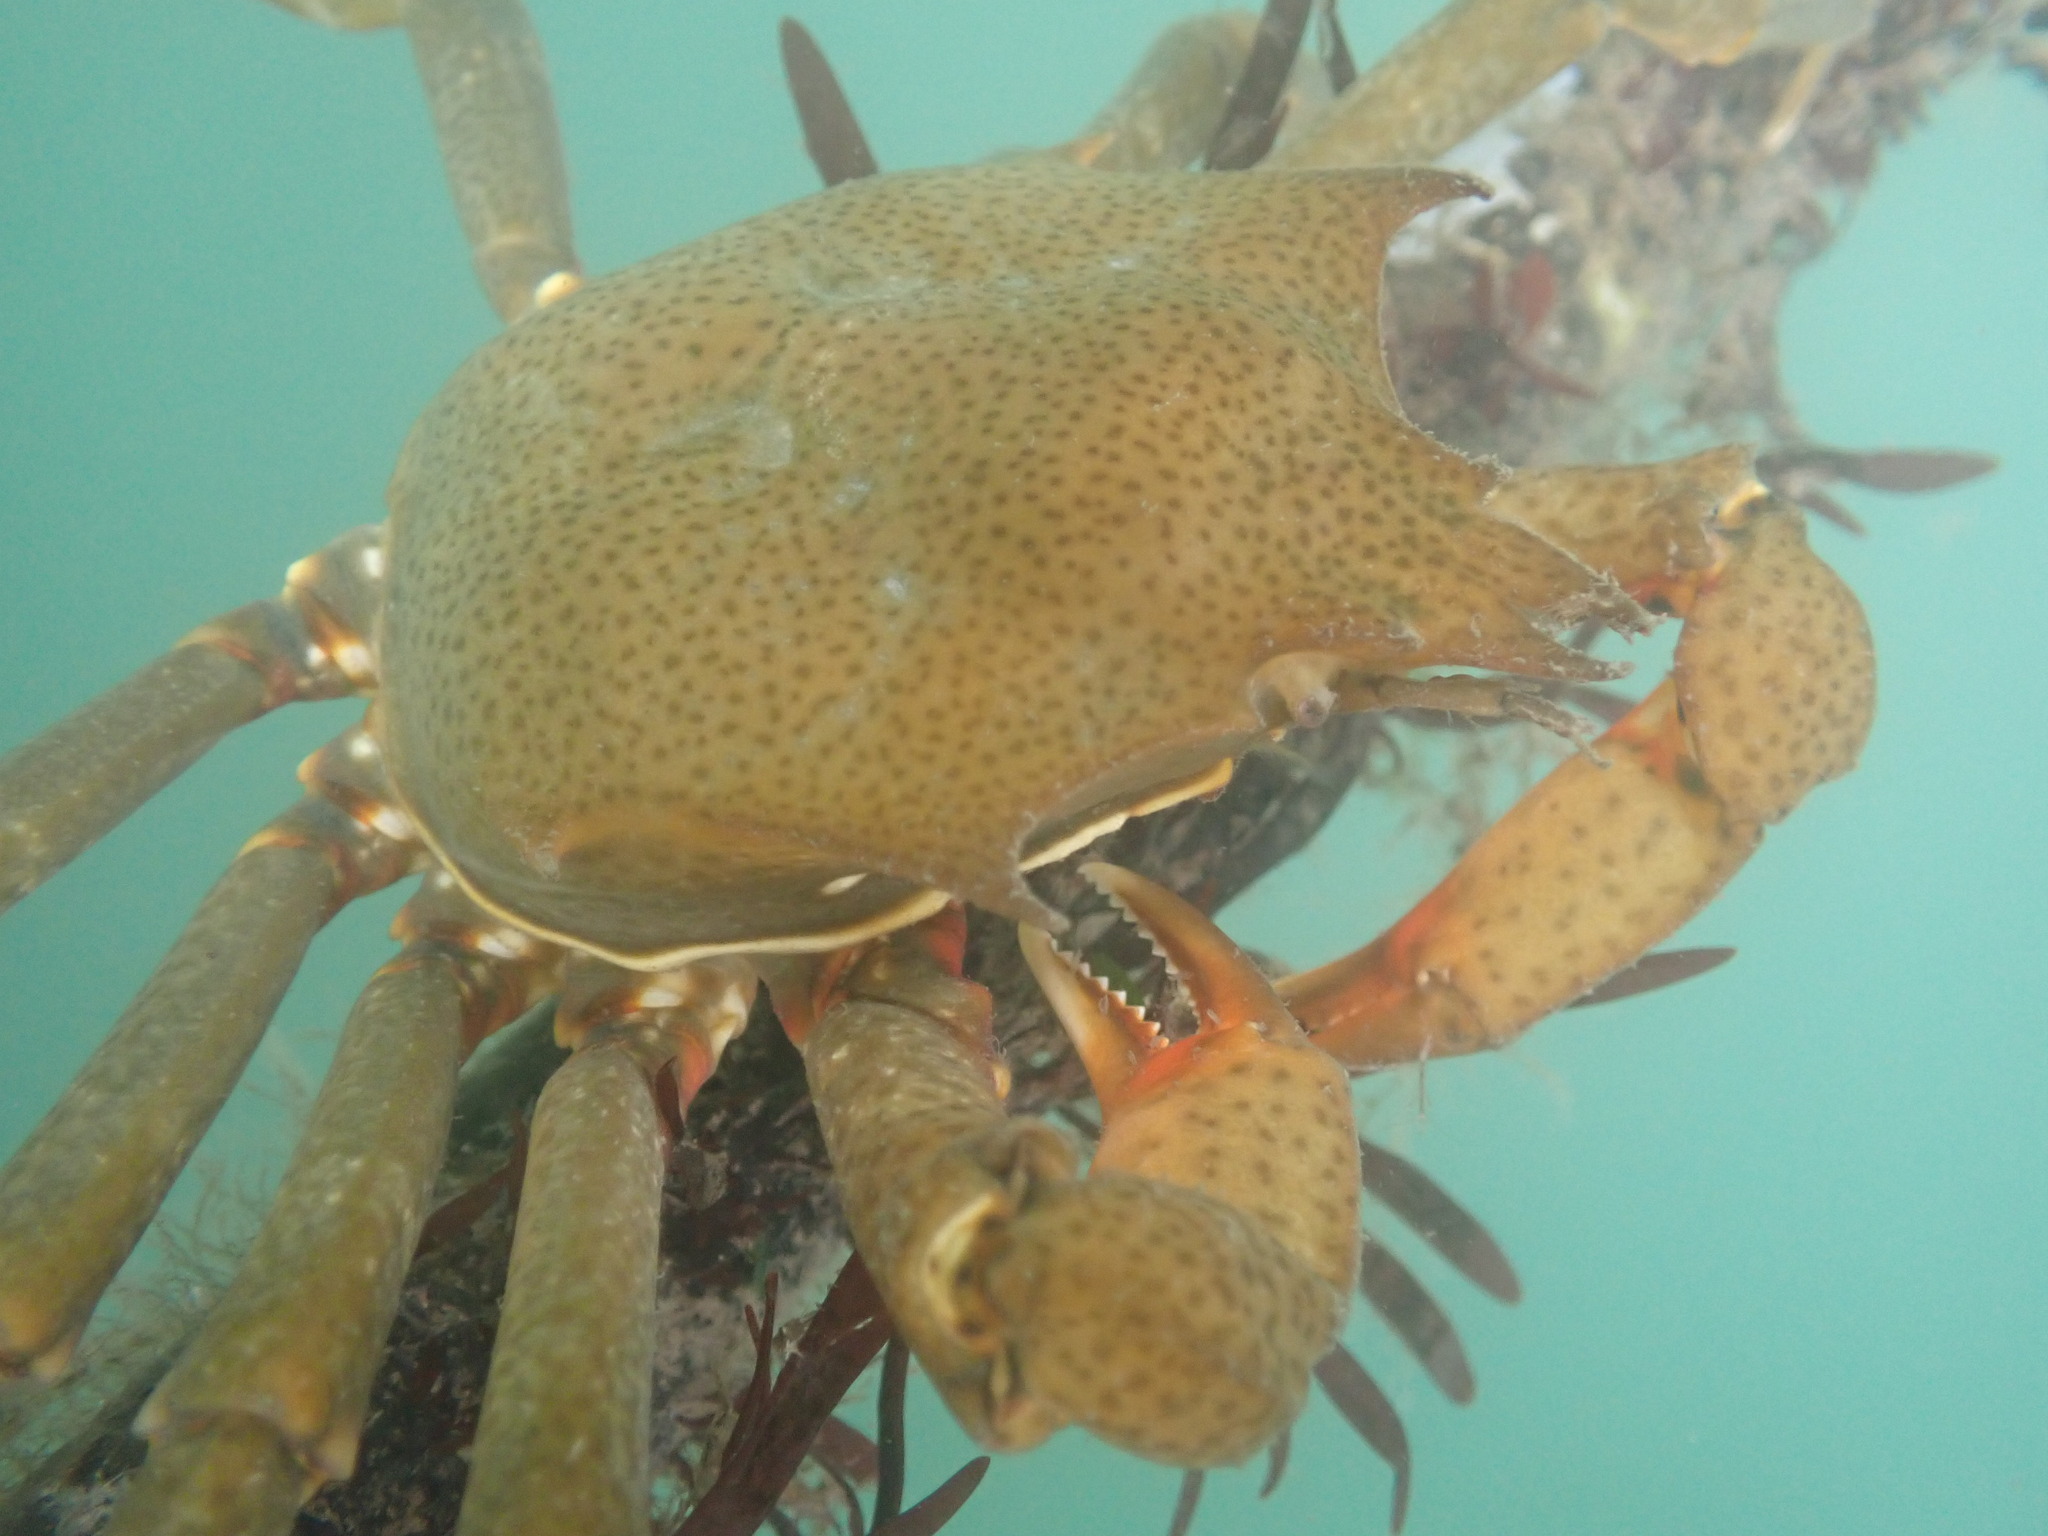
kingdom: Animalia
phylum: Arthropoda
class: Malacostraca
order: Decapoda
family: Epialtidae
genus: Pugettia
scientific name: Pugettia producta
